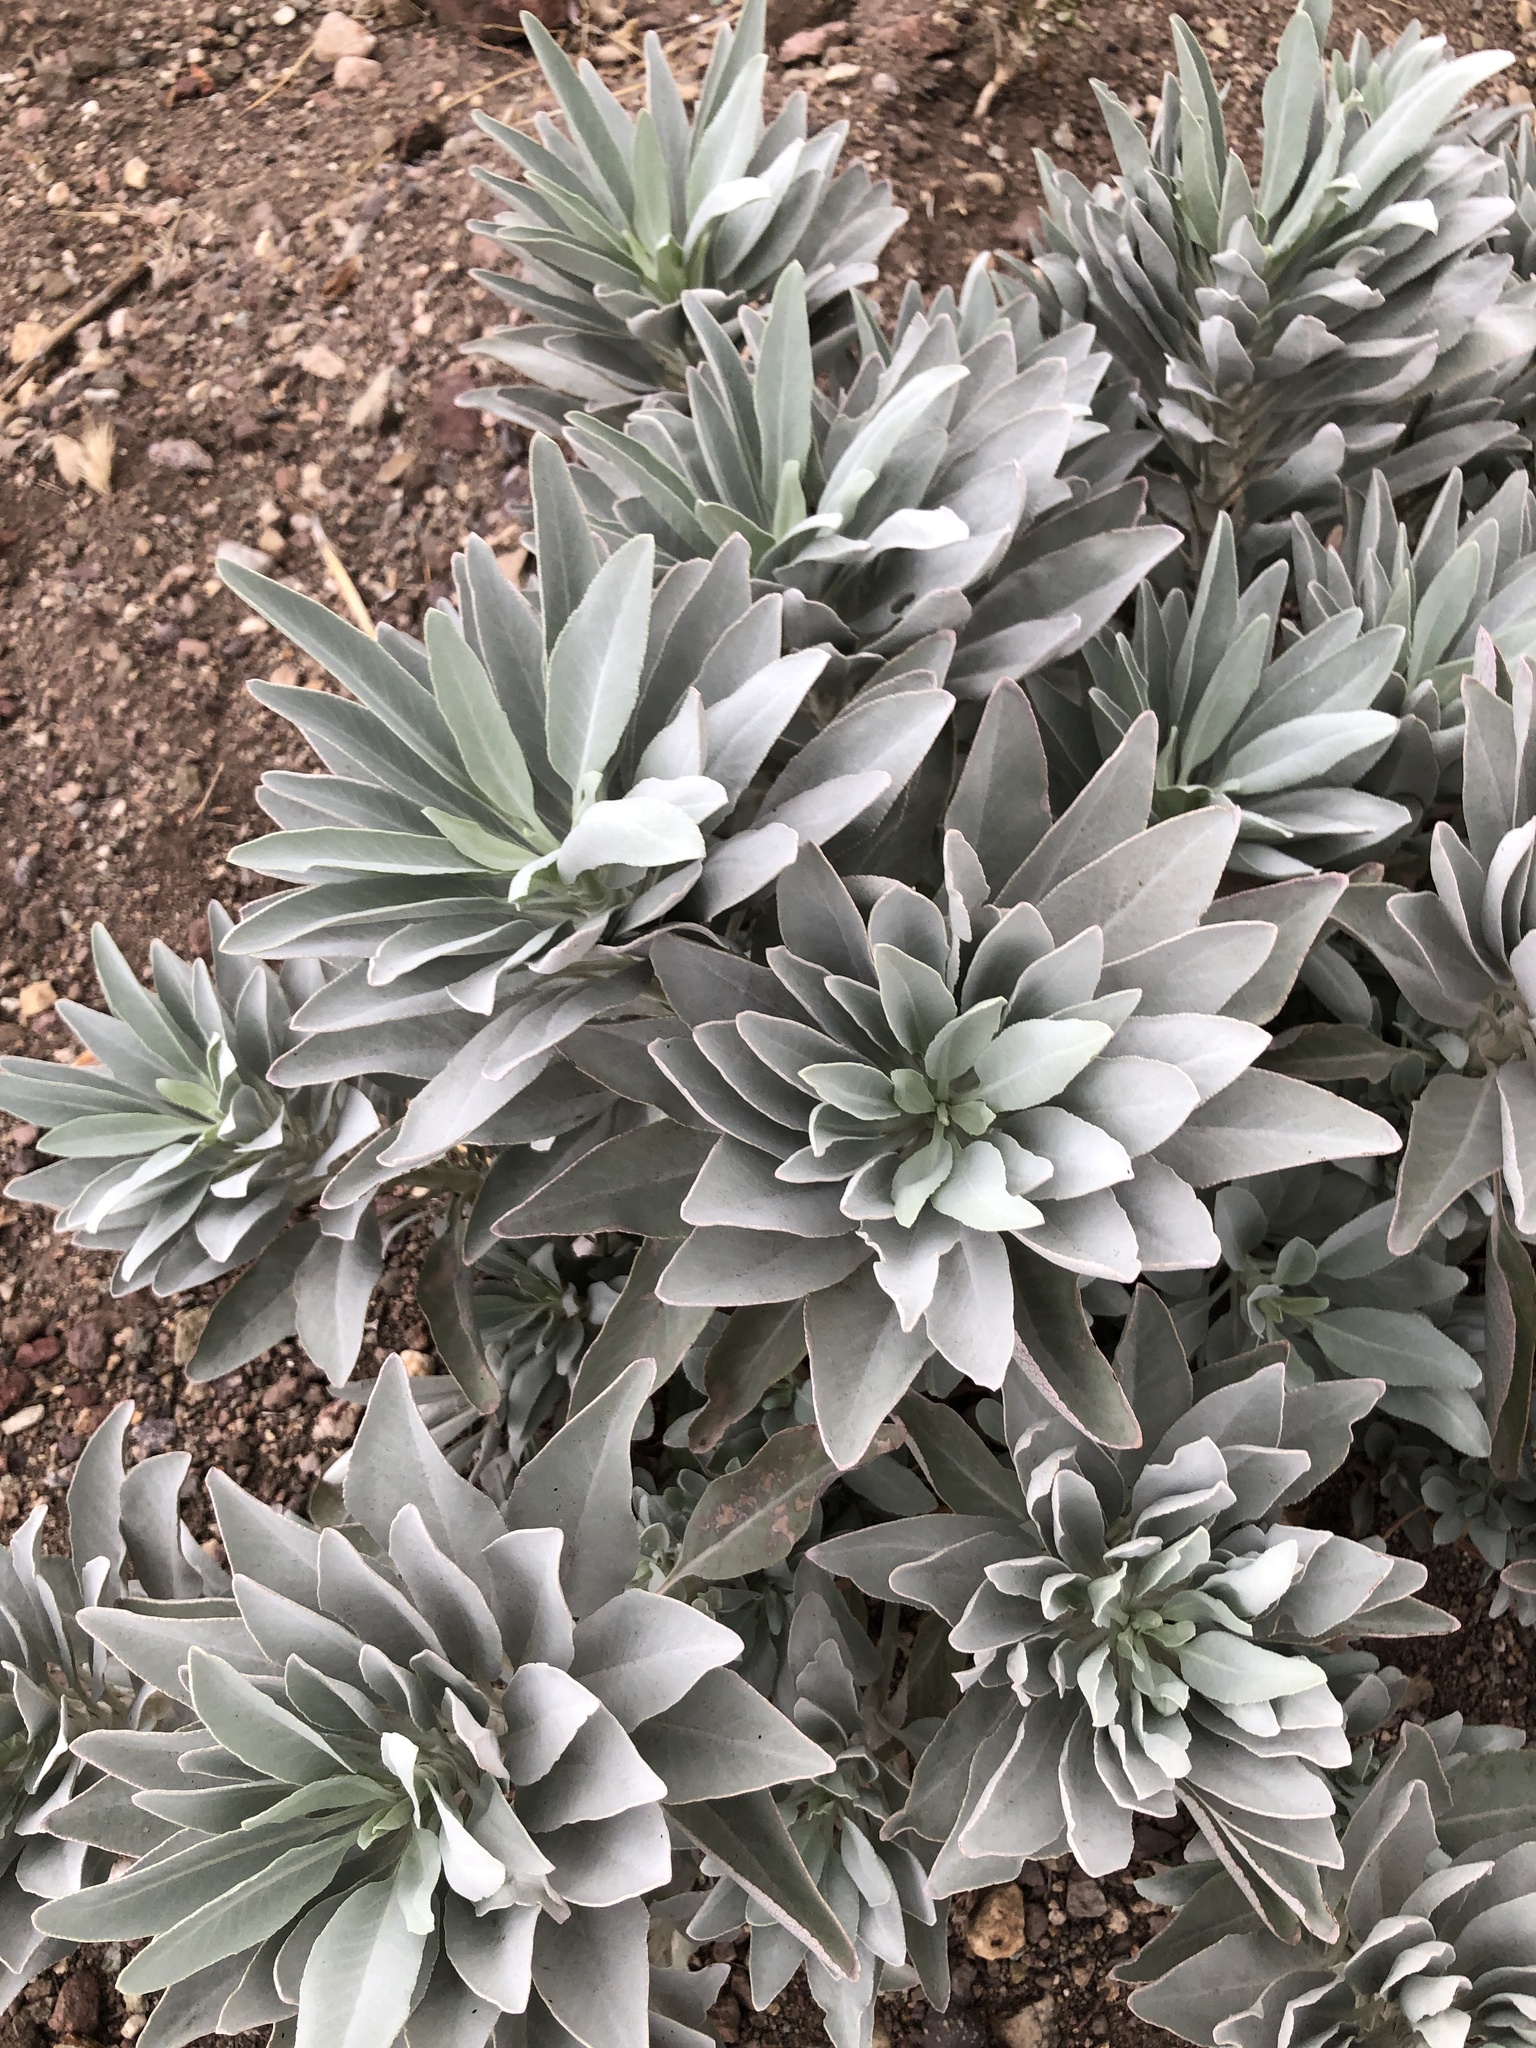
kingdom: Plantae
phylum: Tracheophyta
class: Magnoliopsida
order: Lamiales
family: Lamiaceae
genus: Salvia
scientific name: Salvia apiana
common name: White sage
